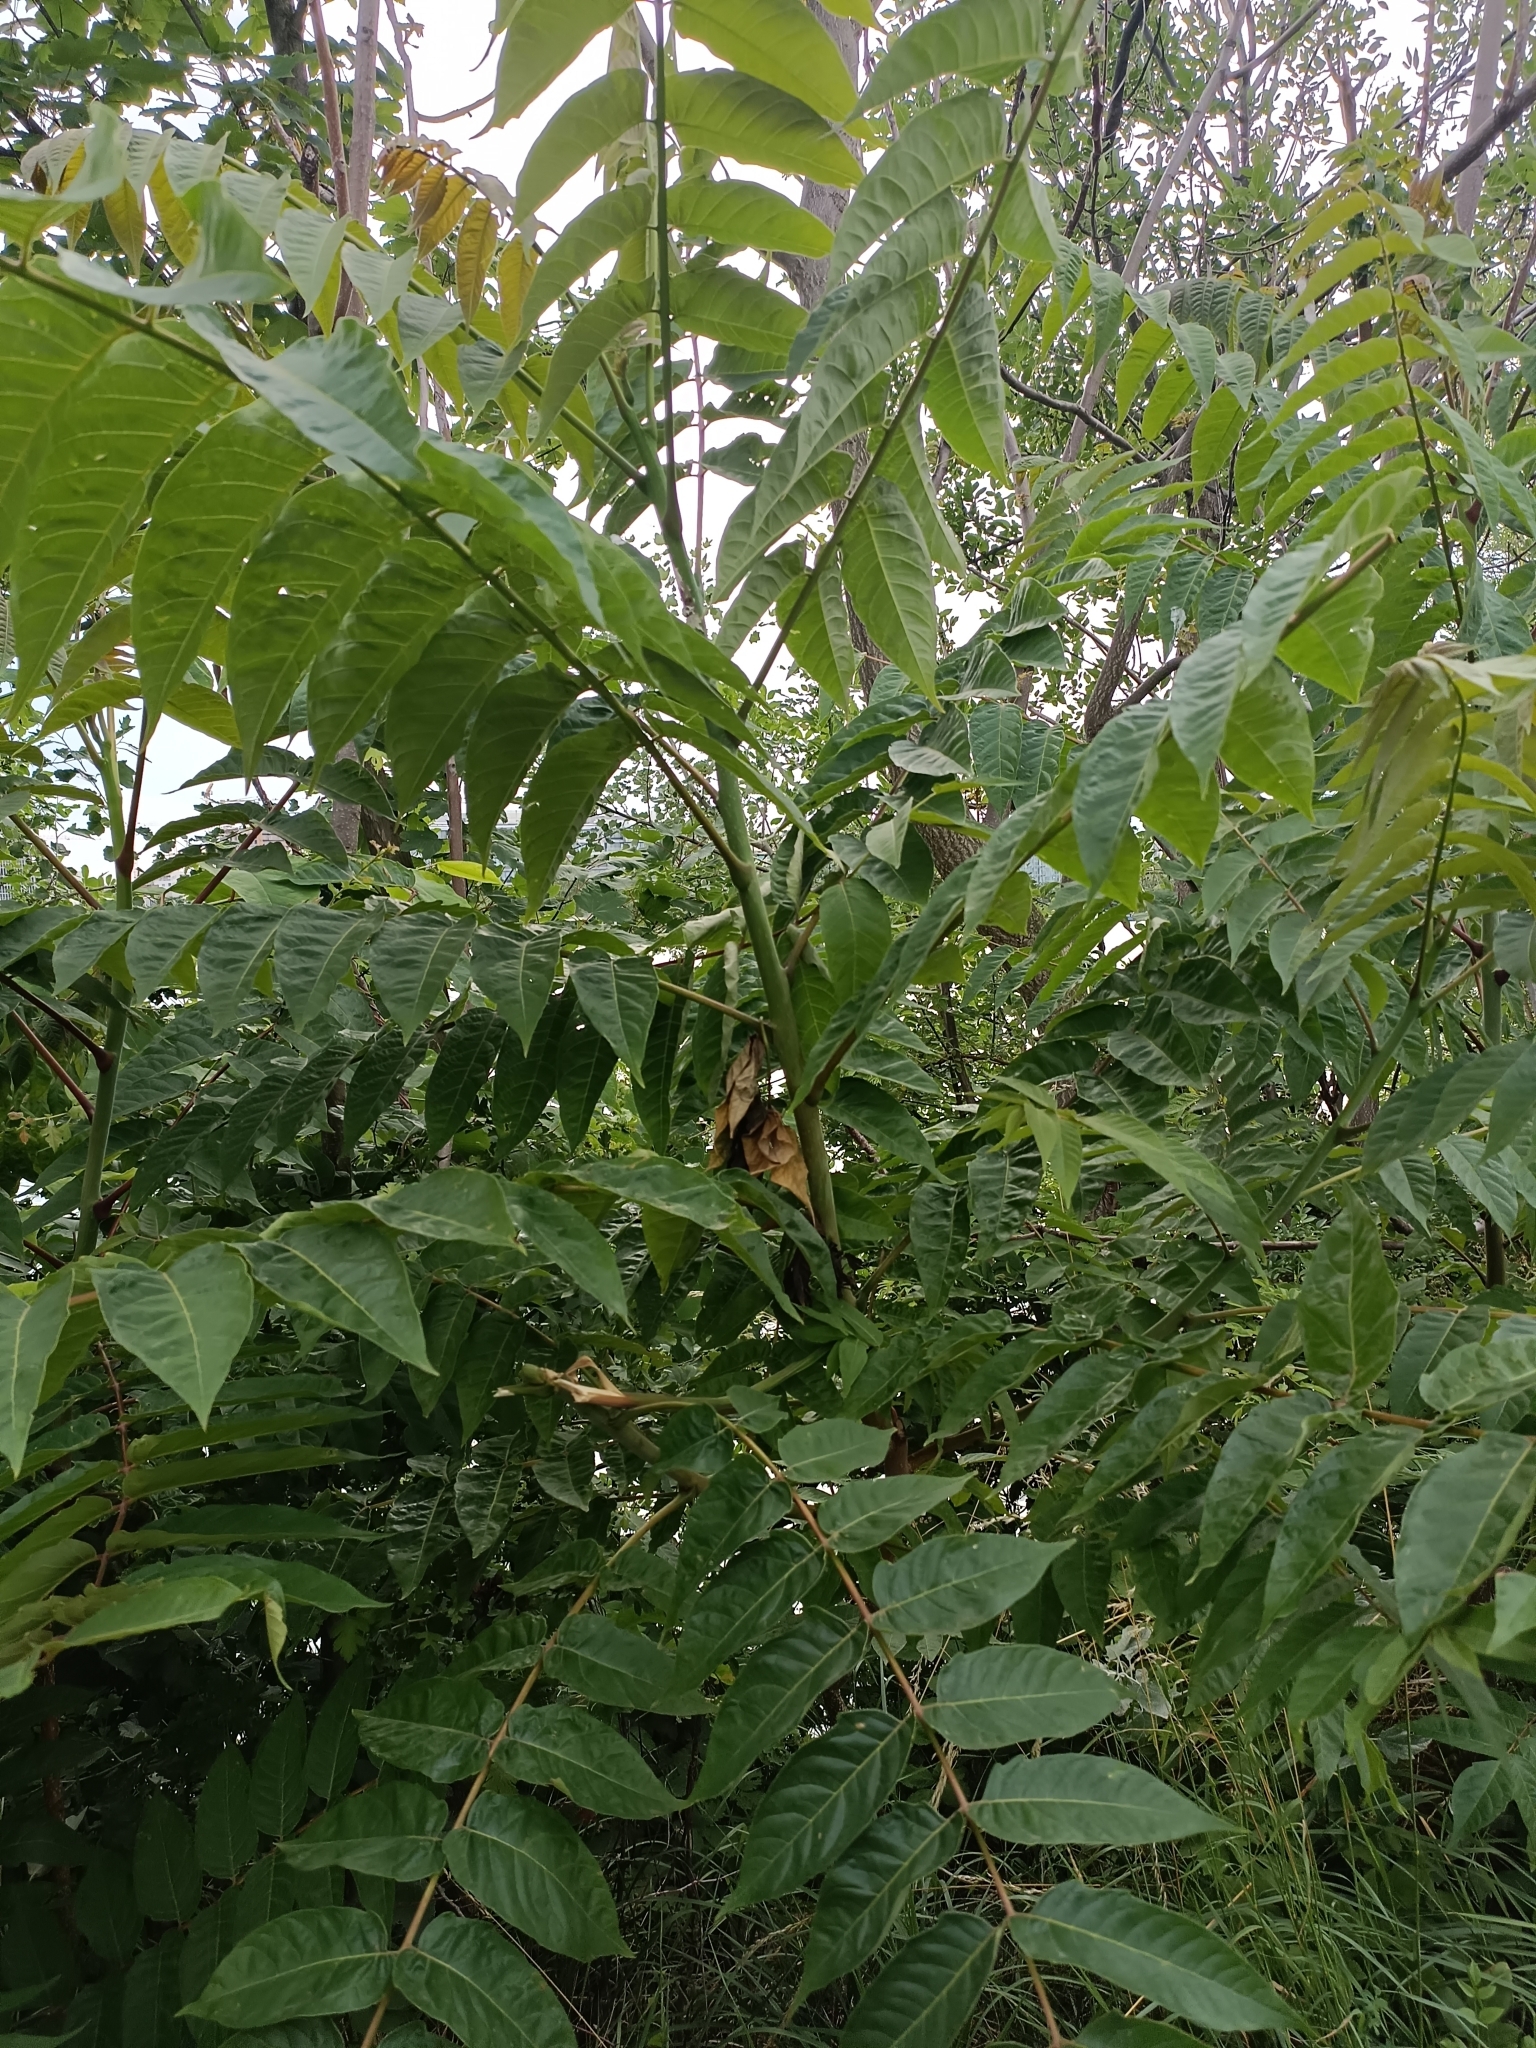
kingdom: Plantae
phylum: Tracheophyta
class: Magnoliopsida
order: Sapindales
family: Simaroubaceae
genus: Ailanthus
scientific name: Ailanthus altissima
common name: Tree-of-heaven
